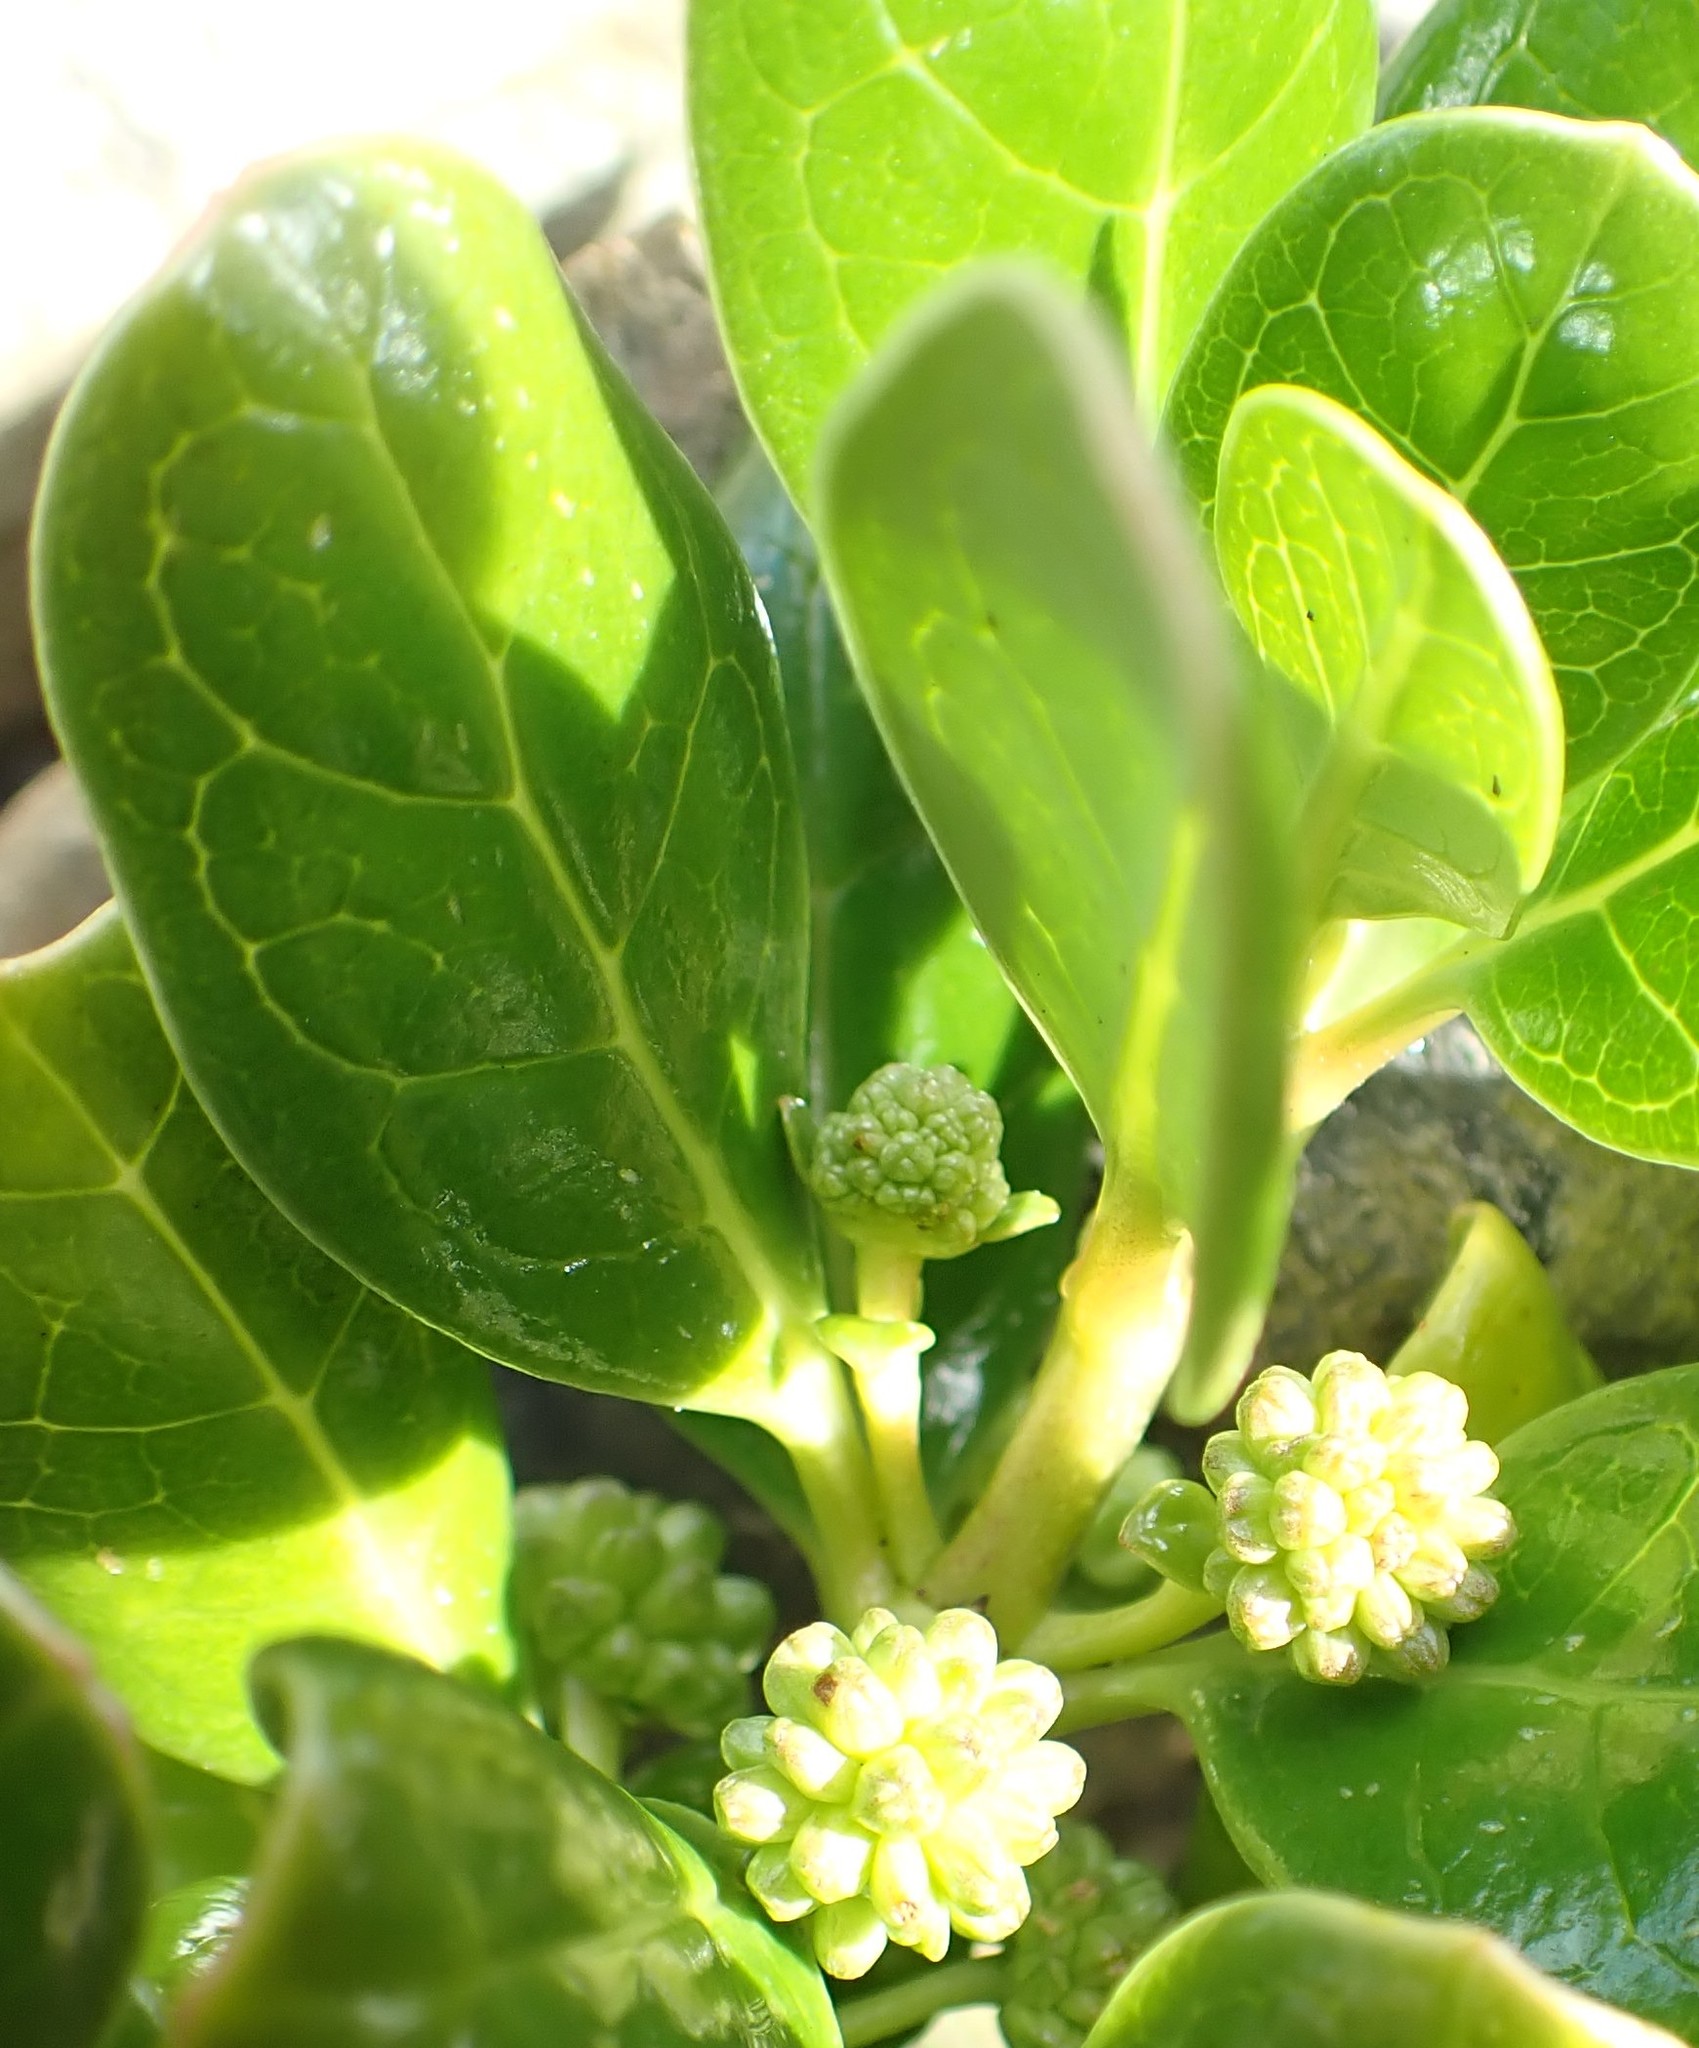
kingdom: Plantae
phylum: Tracheophyta
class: Magnoliopsida
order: Gentianales
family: Rubiaceae
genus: Coprosma
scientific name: Coprosma repens
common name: Tree bedstraw
